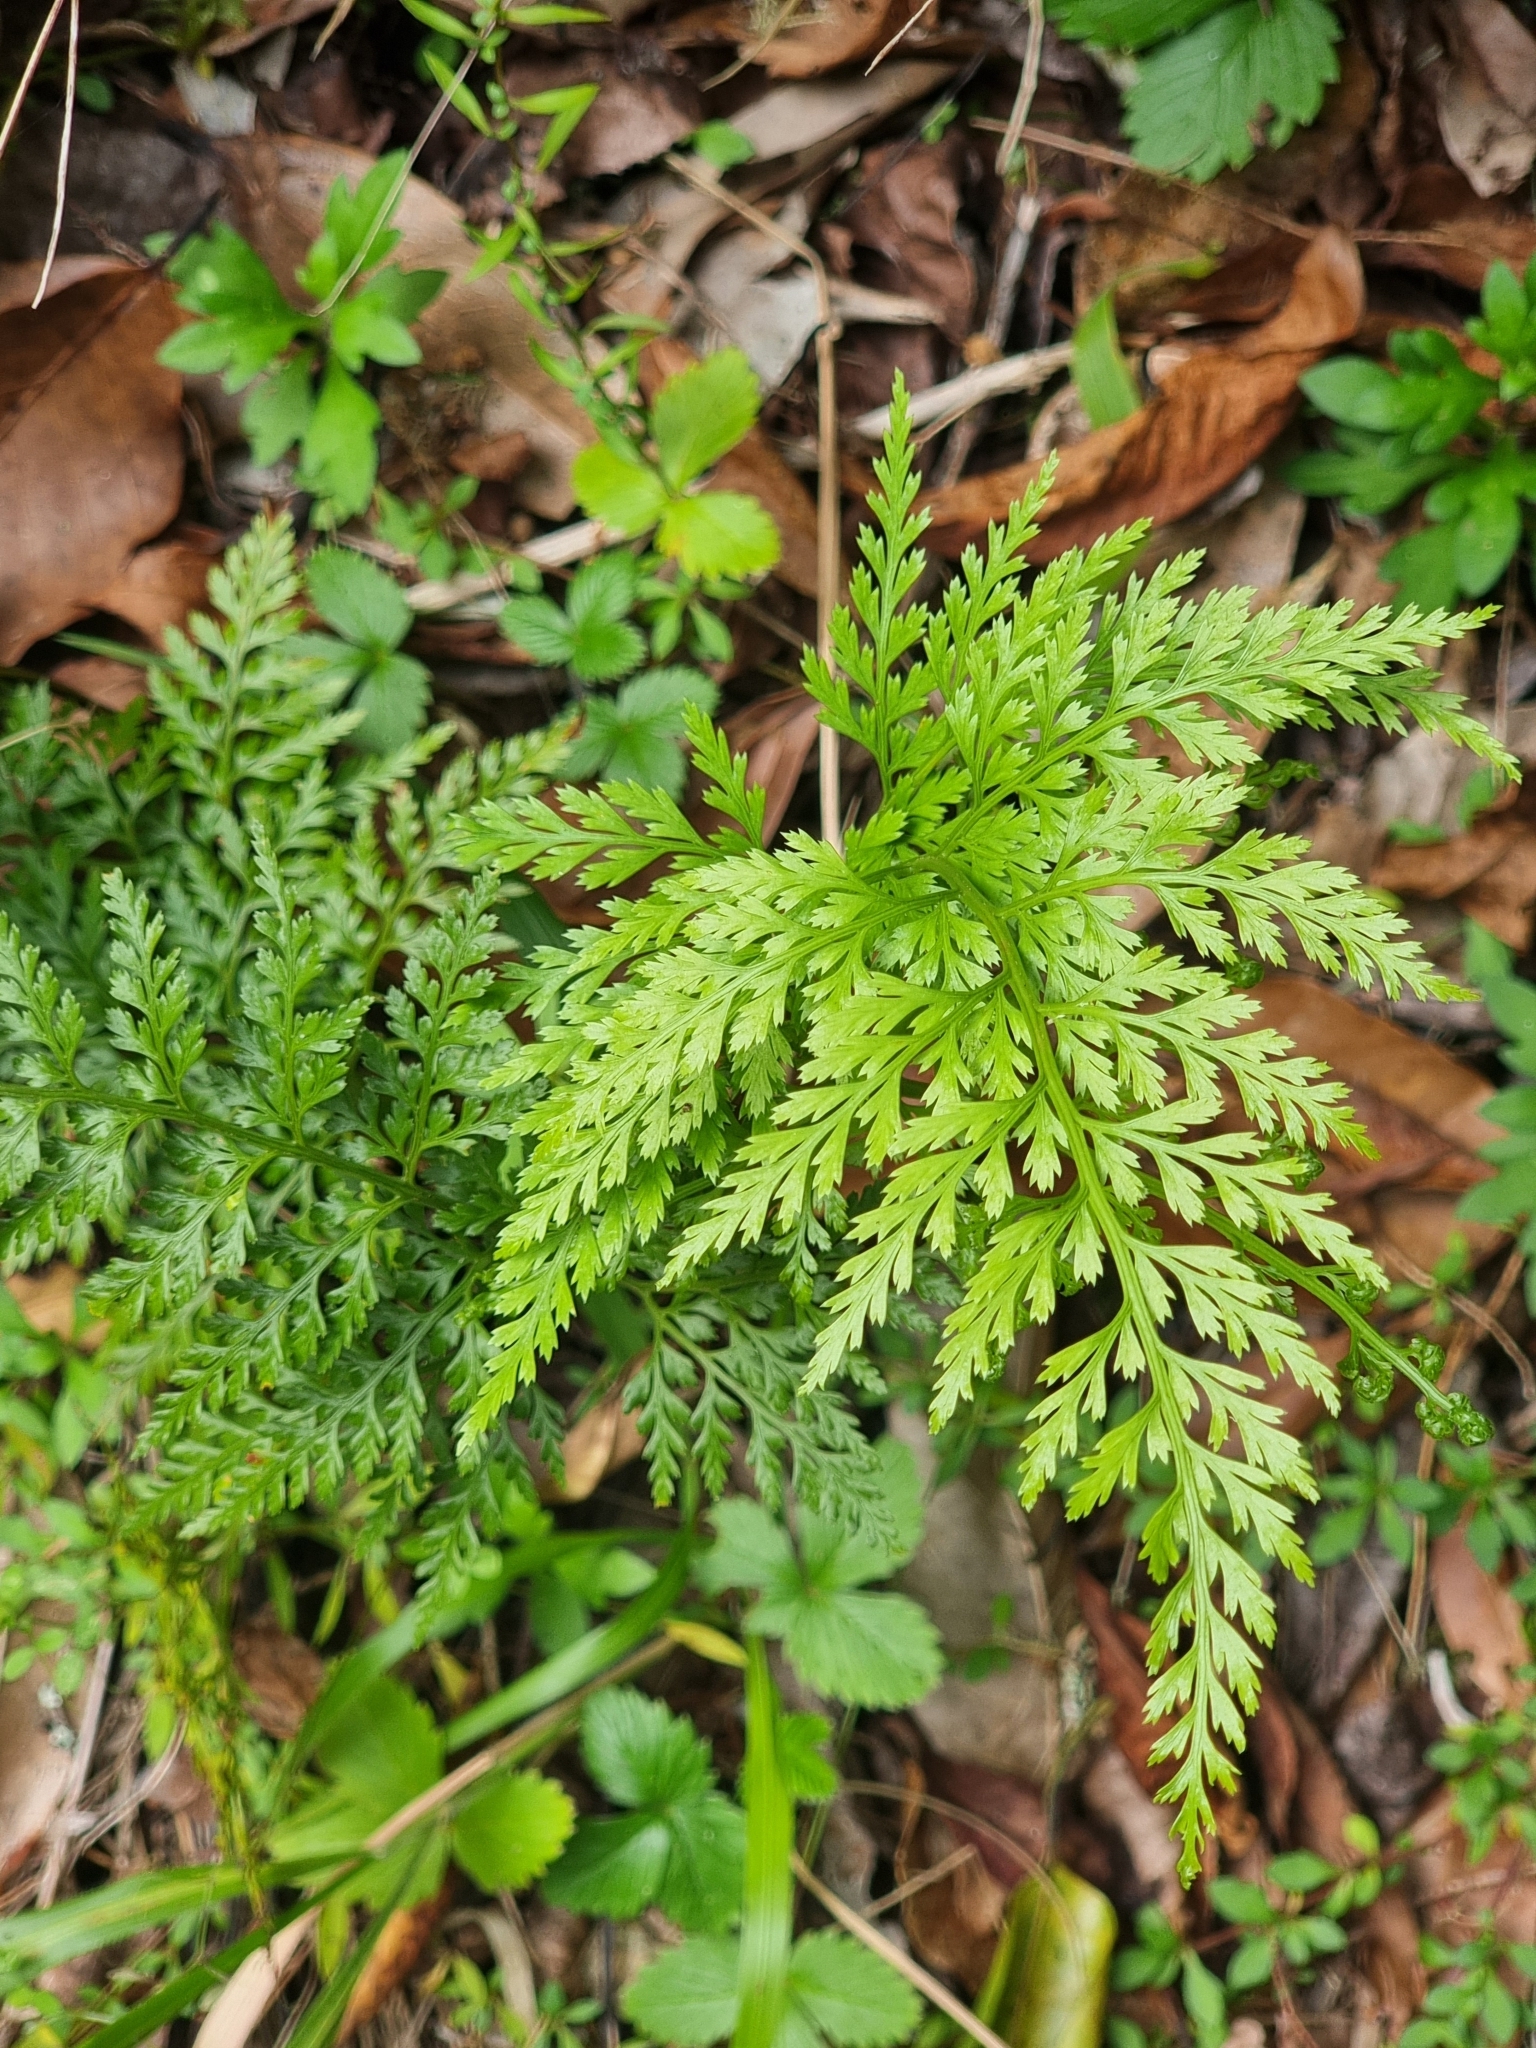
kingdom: Plantae
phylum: Tracheophyta
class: Polypodiopsida
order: Polypodiales
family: Aspleniaceae
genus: Asplenium
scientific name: Asplenium onopteris
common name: Irish spleenwort
